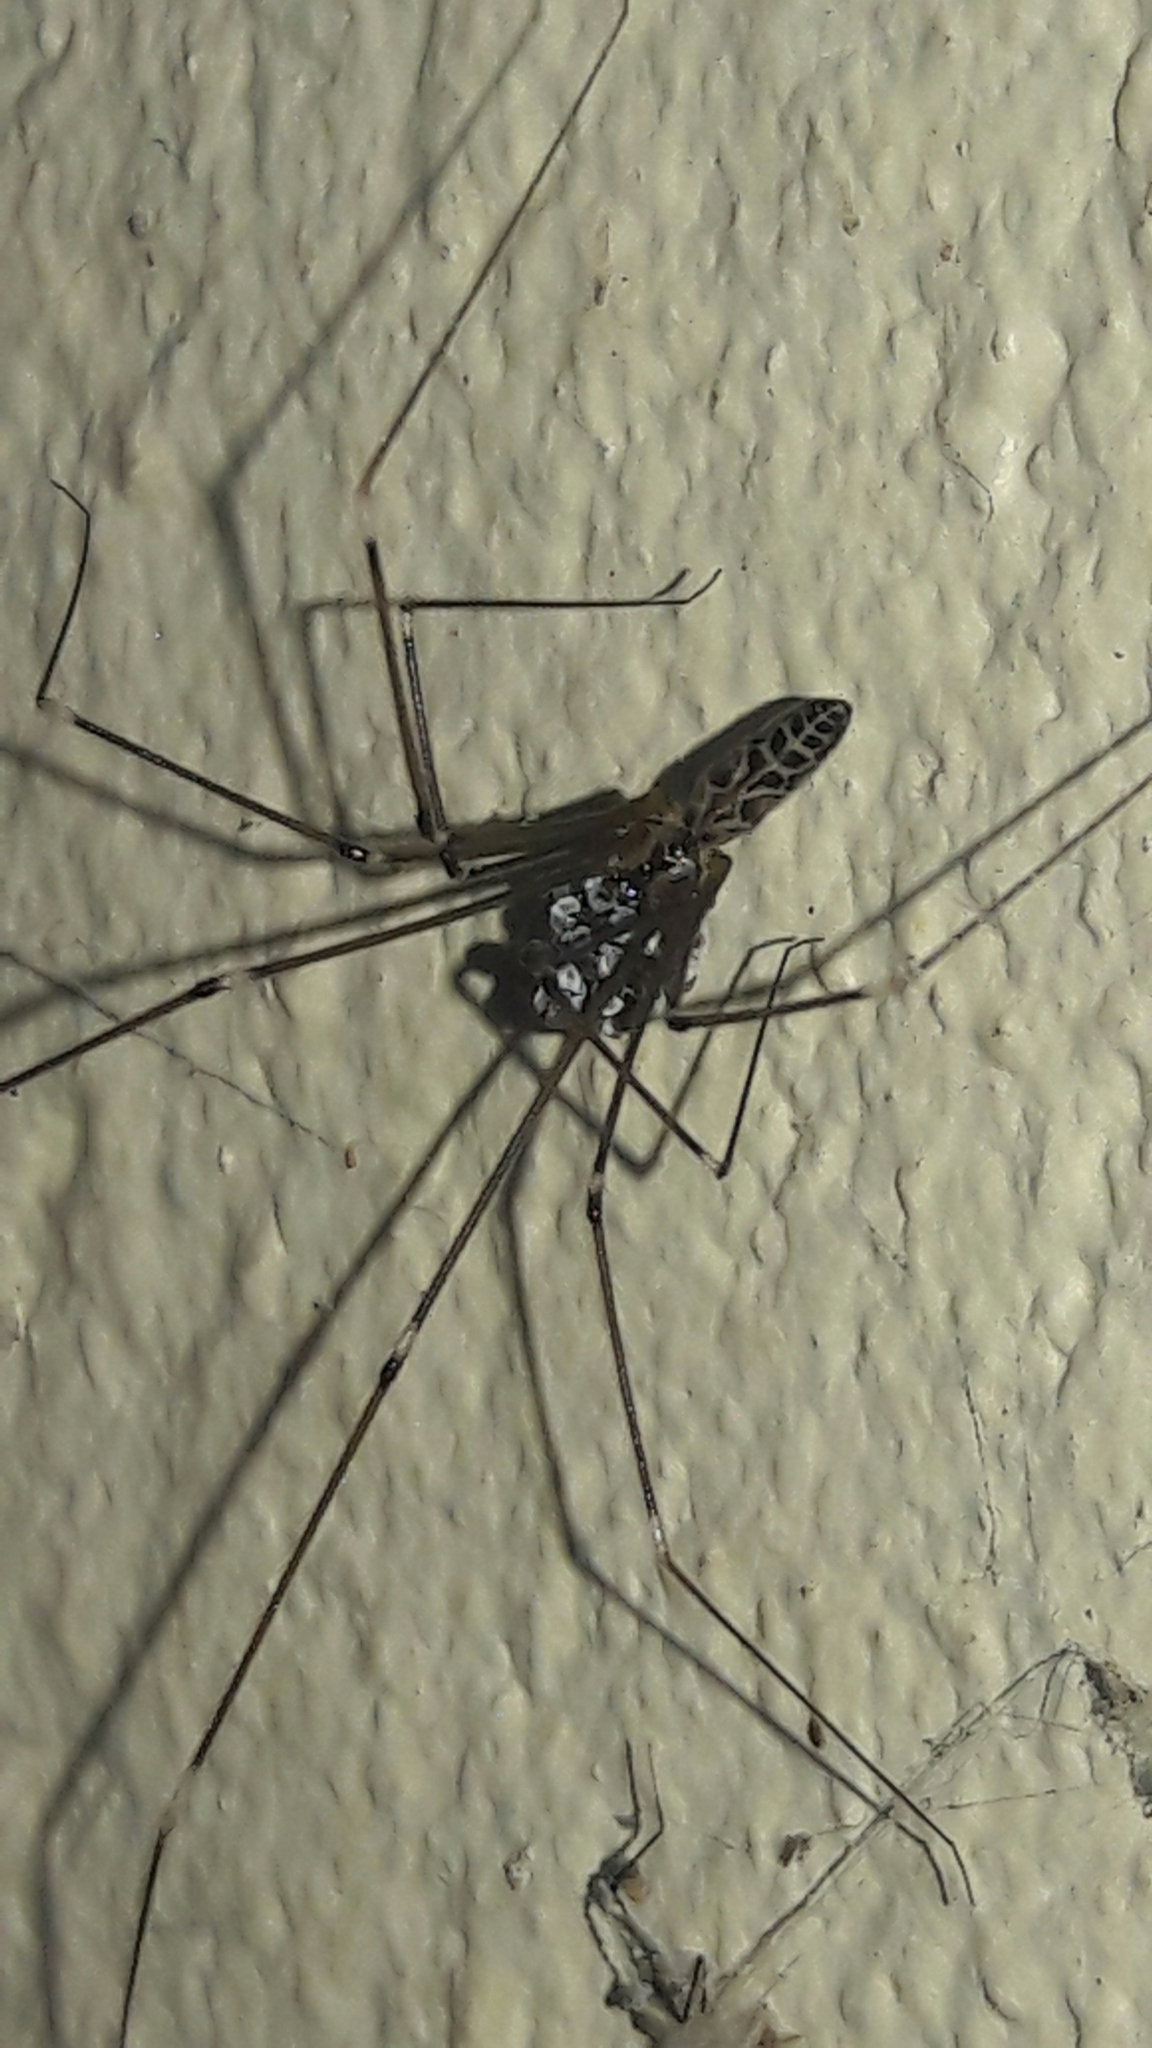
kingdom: Animalia
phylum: Arthropoda
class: Arachnida
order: Araneae
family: Pholcidae
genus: Smeringopus
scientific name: Smeringopus pallidus
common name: Cellar spider
